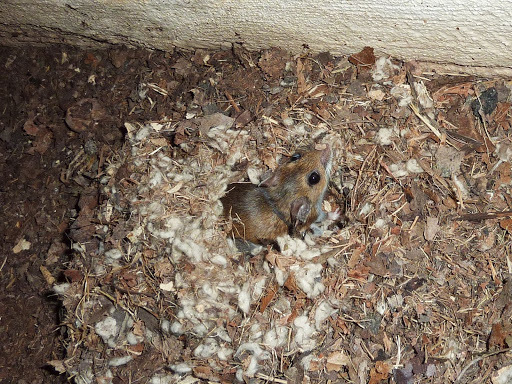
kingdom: Animalia
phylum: Chordata
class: Mammalia
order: Rodentia
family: Cricetidae
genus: Peromyscus
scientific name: Peromyscus
